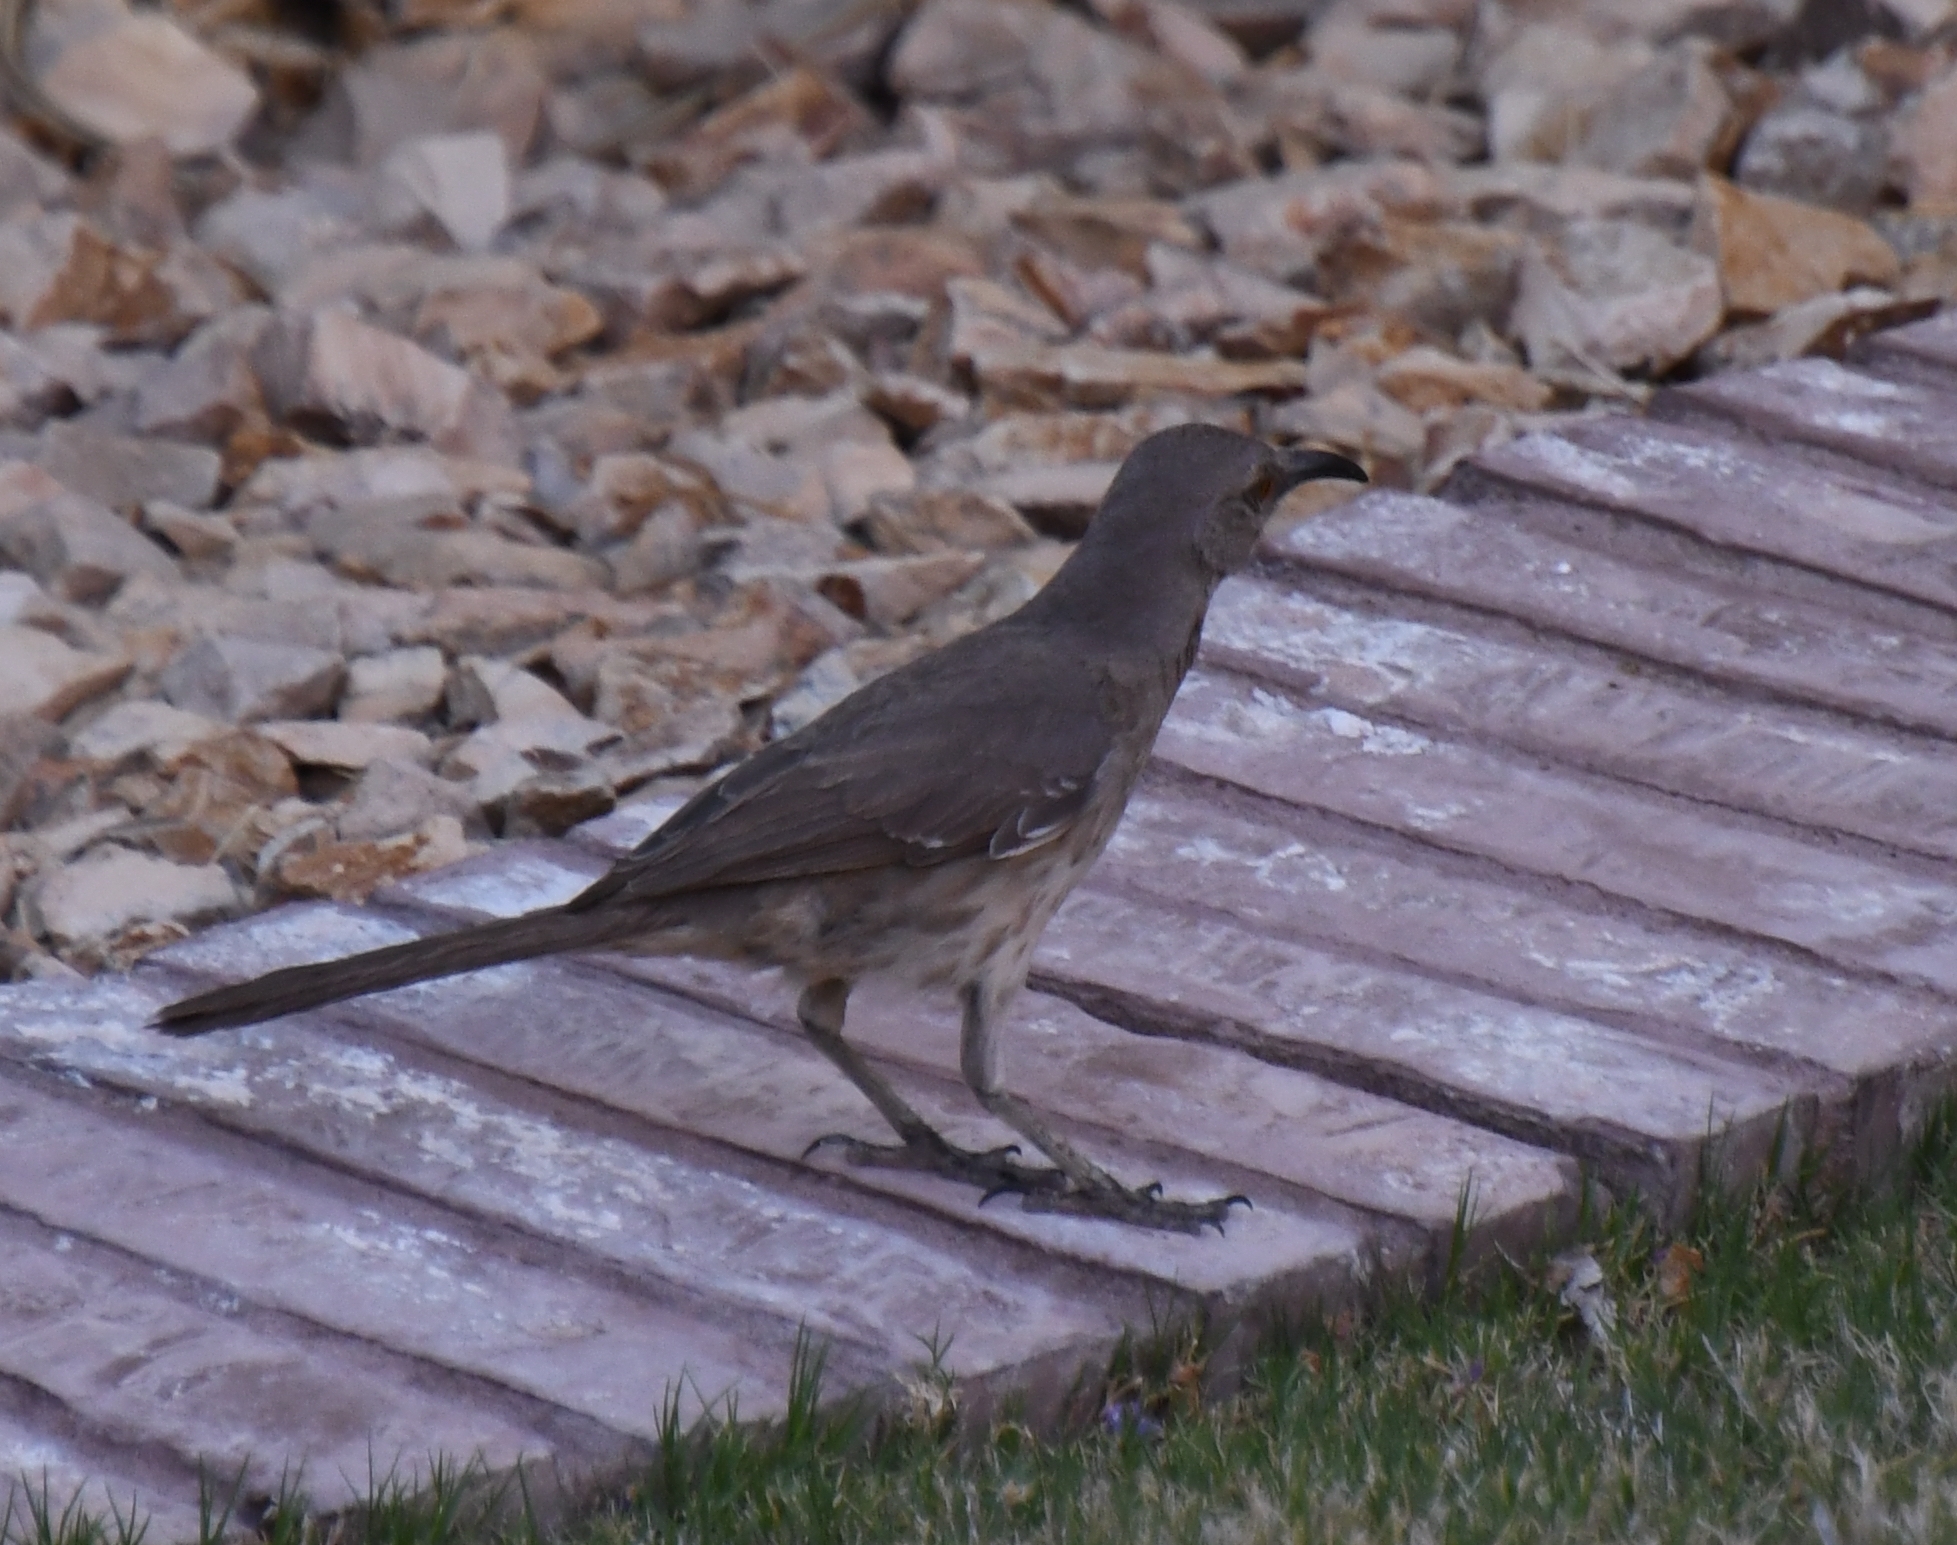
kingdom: Animalia
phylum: Chordata
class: Aves
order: Passeriformes
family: Mimidae
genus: Toxostoma
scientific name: Toxostoma curvirostre
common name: Curve-billed thrasher
